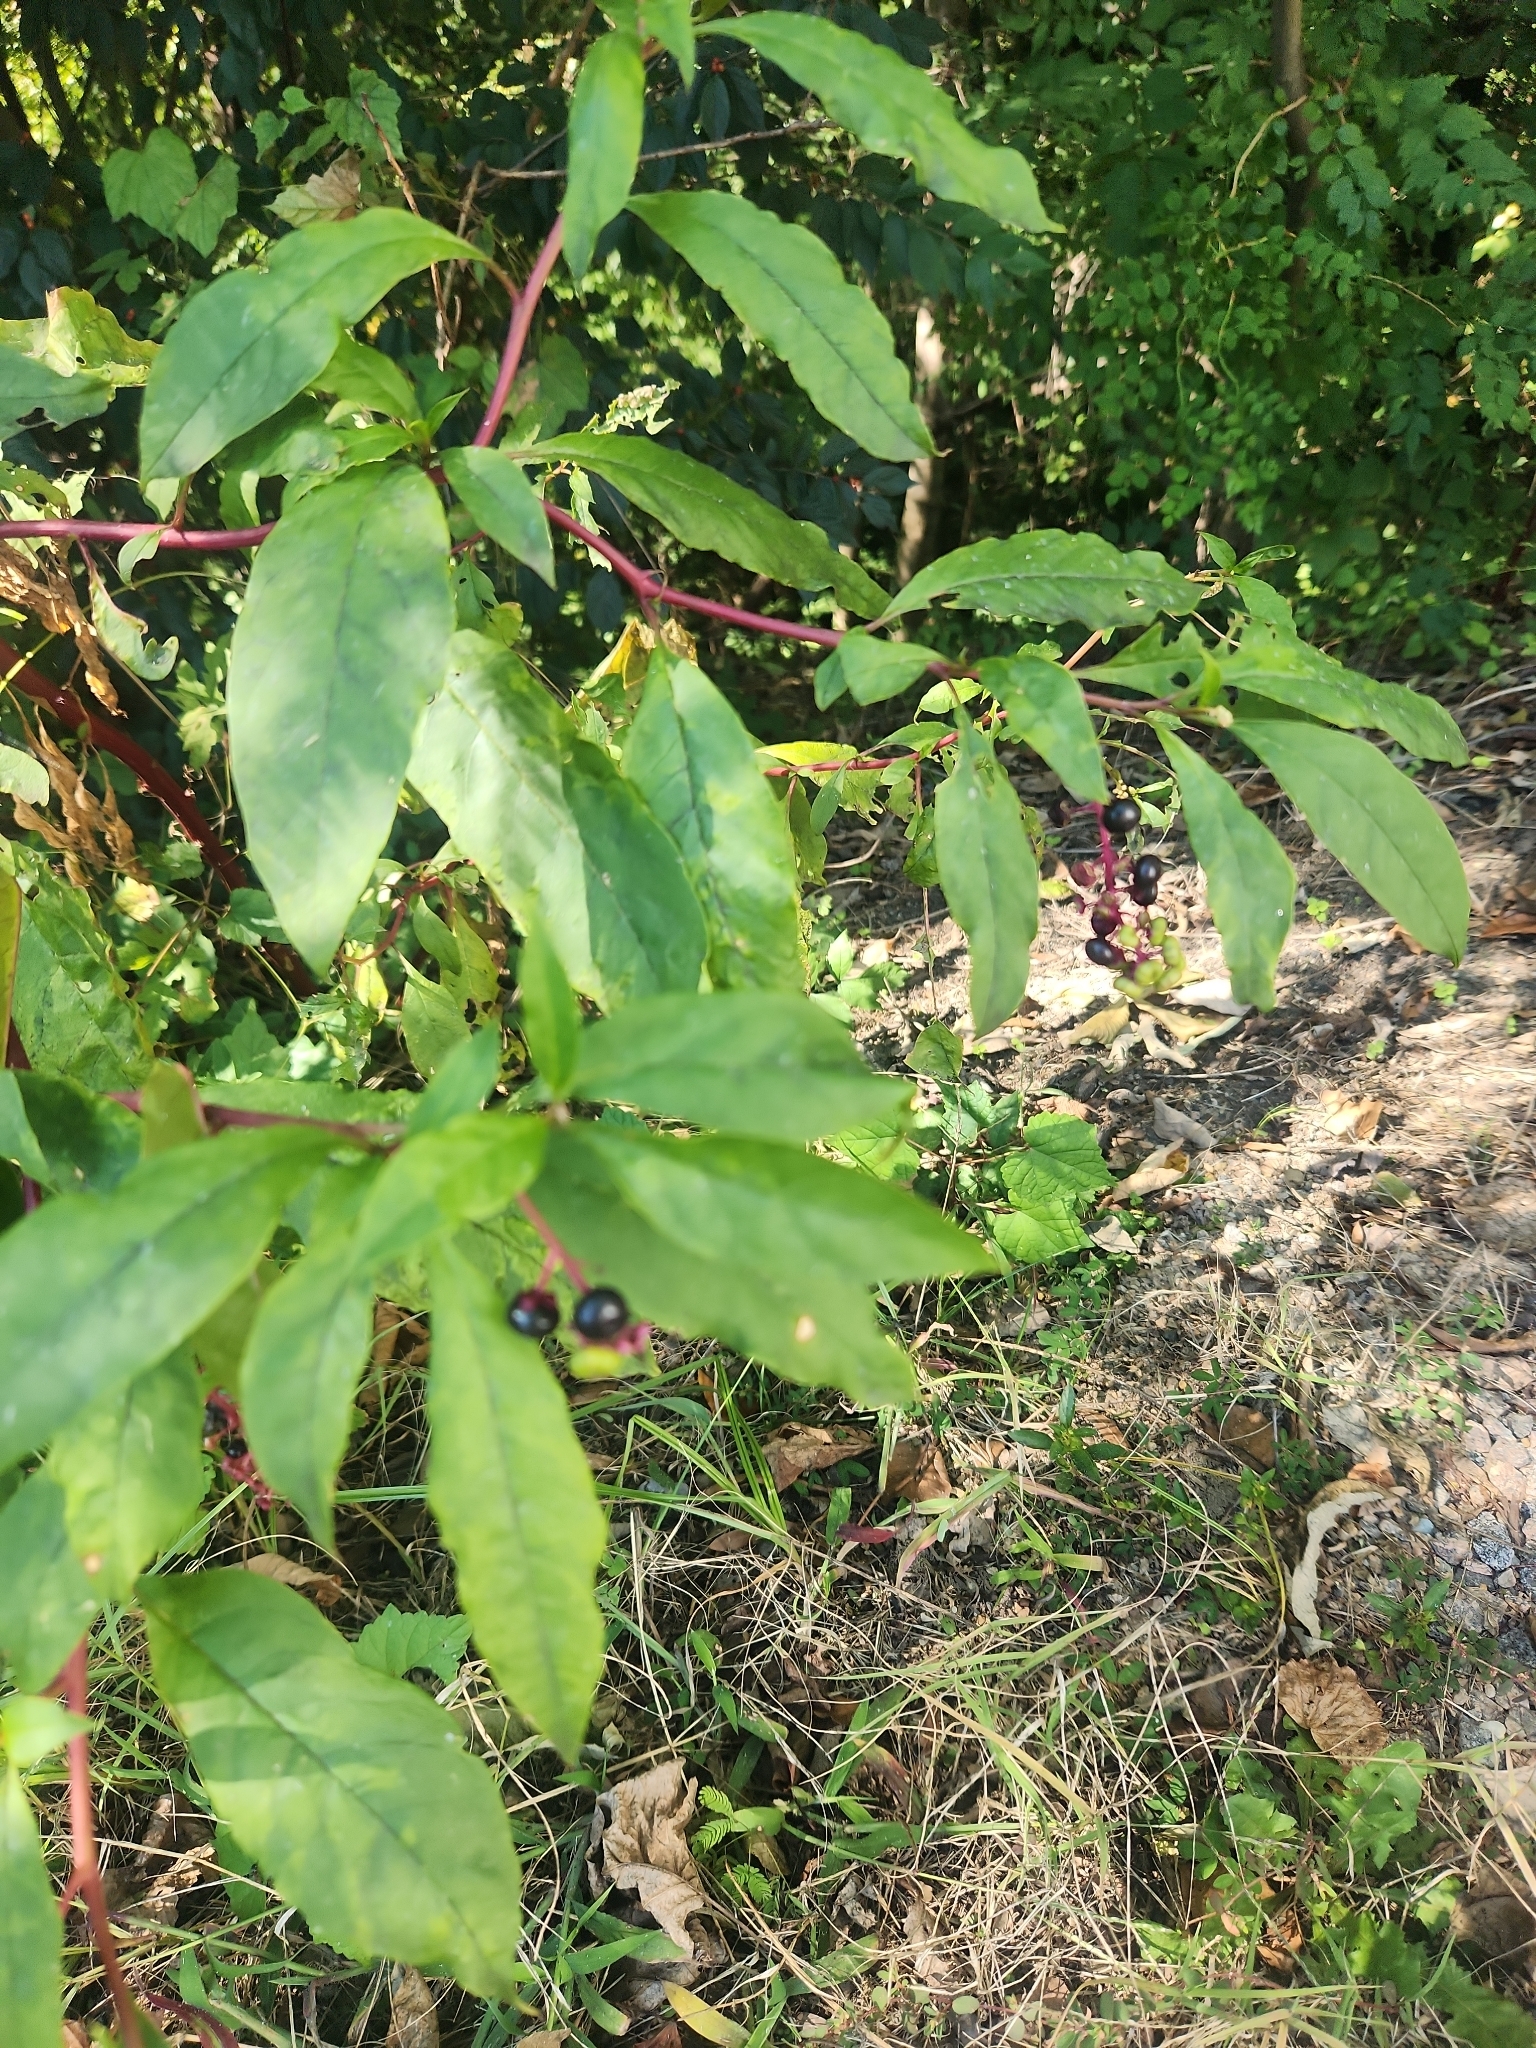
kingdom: Plantae
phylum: Tracheophyta
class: Magnoliopsida
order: Caryophyllales
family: Phytolaccaceae
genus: Phytolacca
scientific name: Phytolacca americana
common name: American pokeweed
